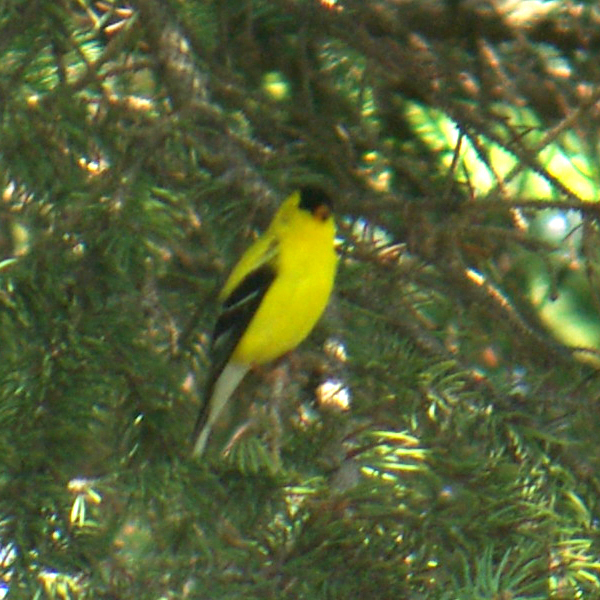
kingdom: Animalia
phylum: Chordata
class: Aves
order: Passeriformes
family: Fringillidae
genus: Spinus
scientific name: Spinus tristis
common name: American goldfinch
